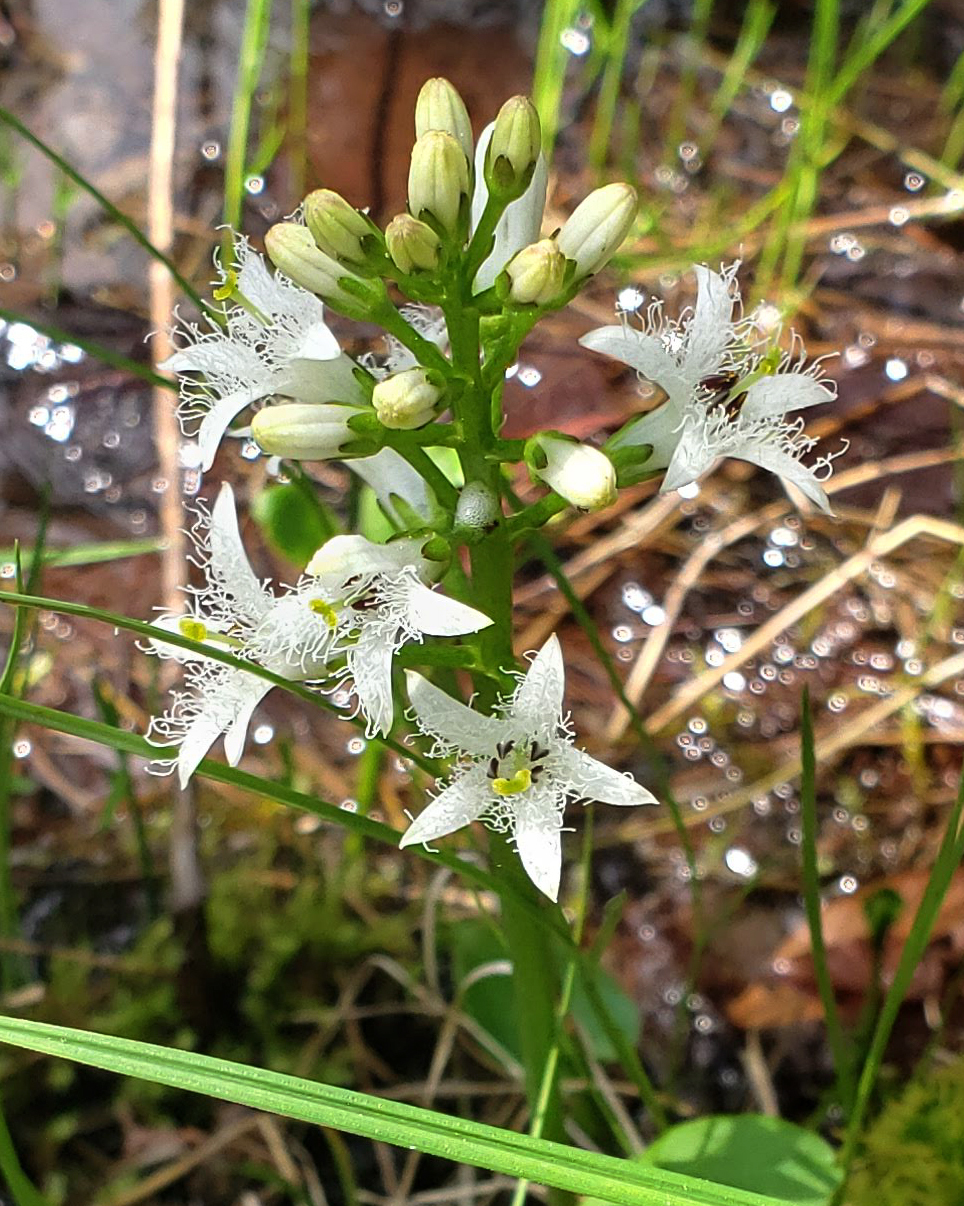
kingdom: Plantae
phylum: Tracheophyta
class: Magnoliopsida
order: Asterales
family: Menyanthaceae
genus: Menyanthes
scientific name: Menyanthes trifoliata
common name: Bogbean
